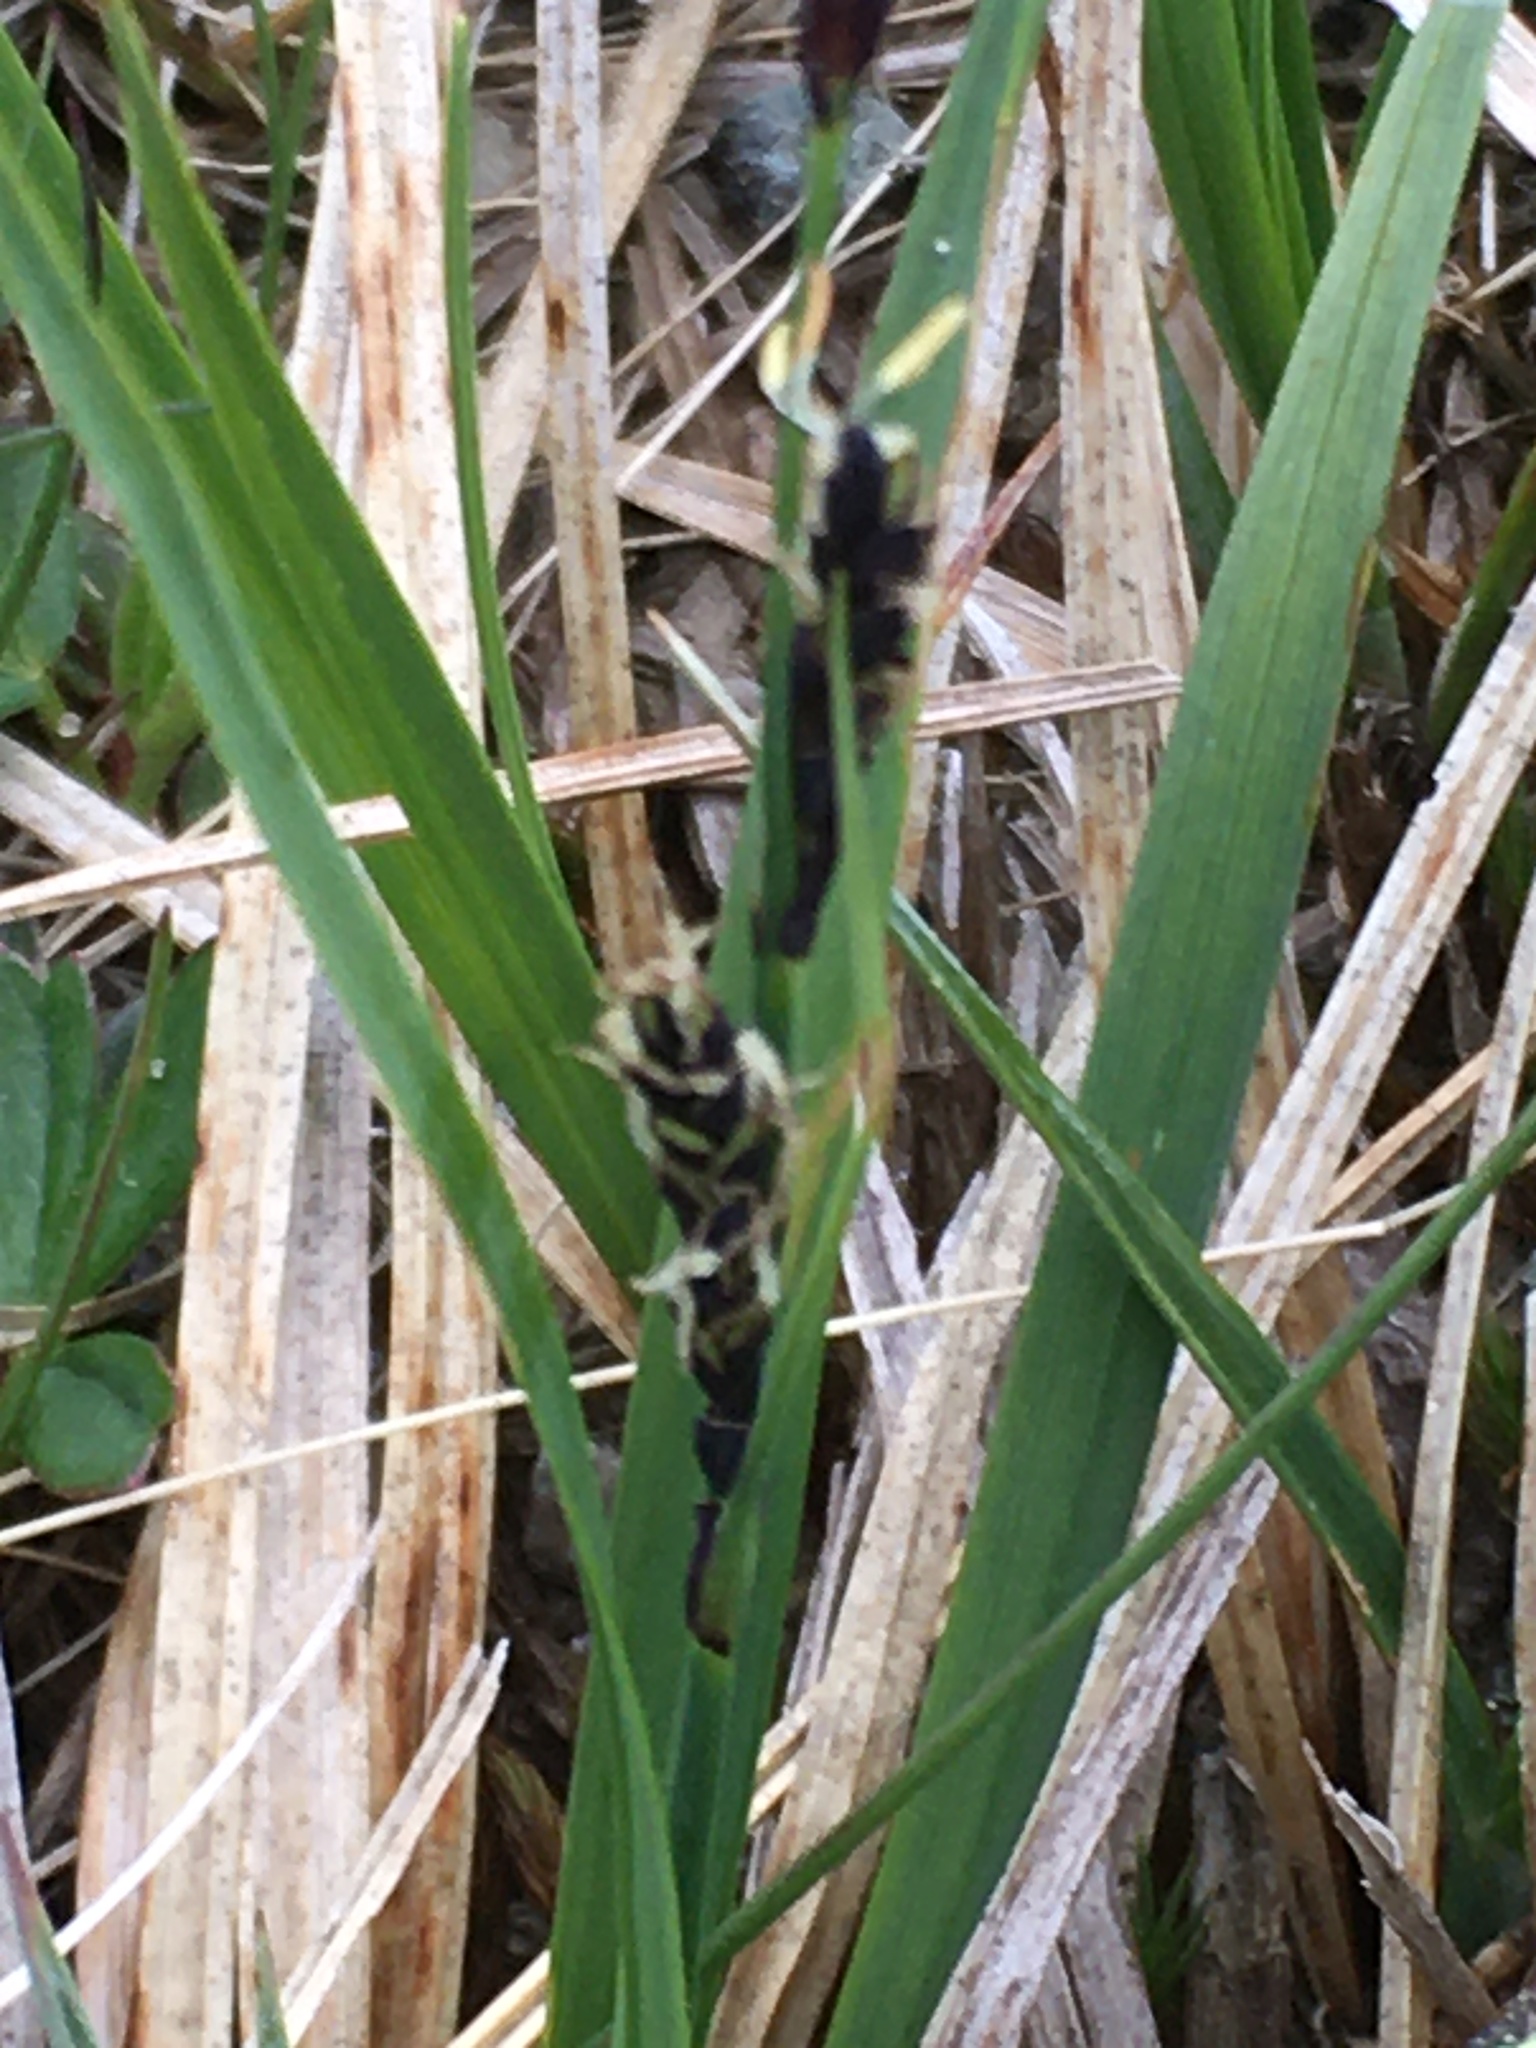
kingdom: Plantae
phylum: Tracheophyta
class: Liliopsida
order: Poales
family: Cyperaceae
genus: Carex
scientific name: Carex bigelowii
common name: Stiff sedge
